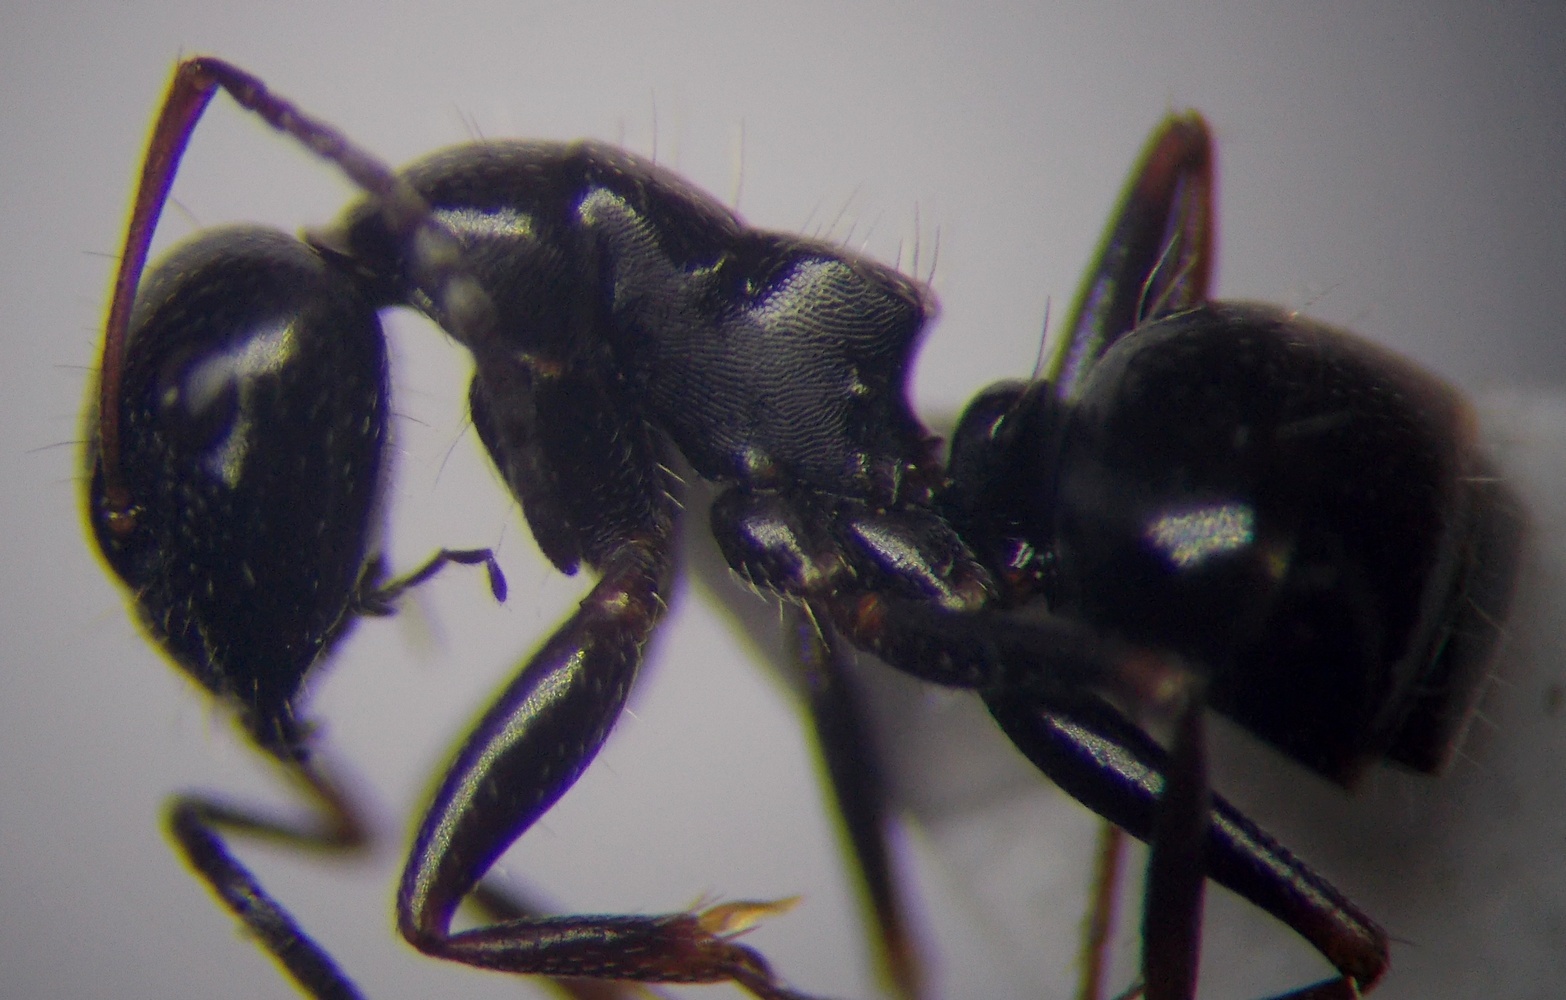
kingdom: Animalia
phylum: Arthropoda
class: Insecta
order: Hymenoptera
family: Formicidae
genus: Camponotus
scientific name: Camponotus piceus
